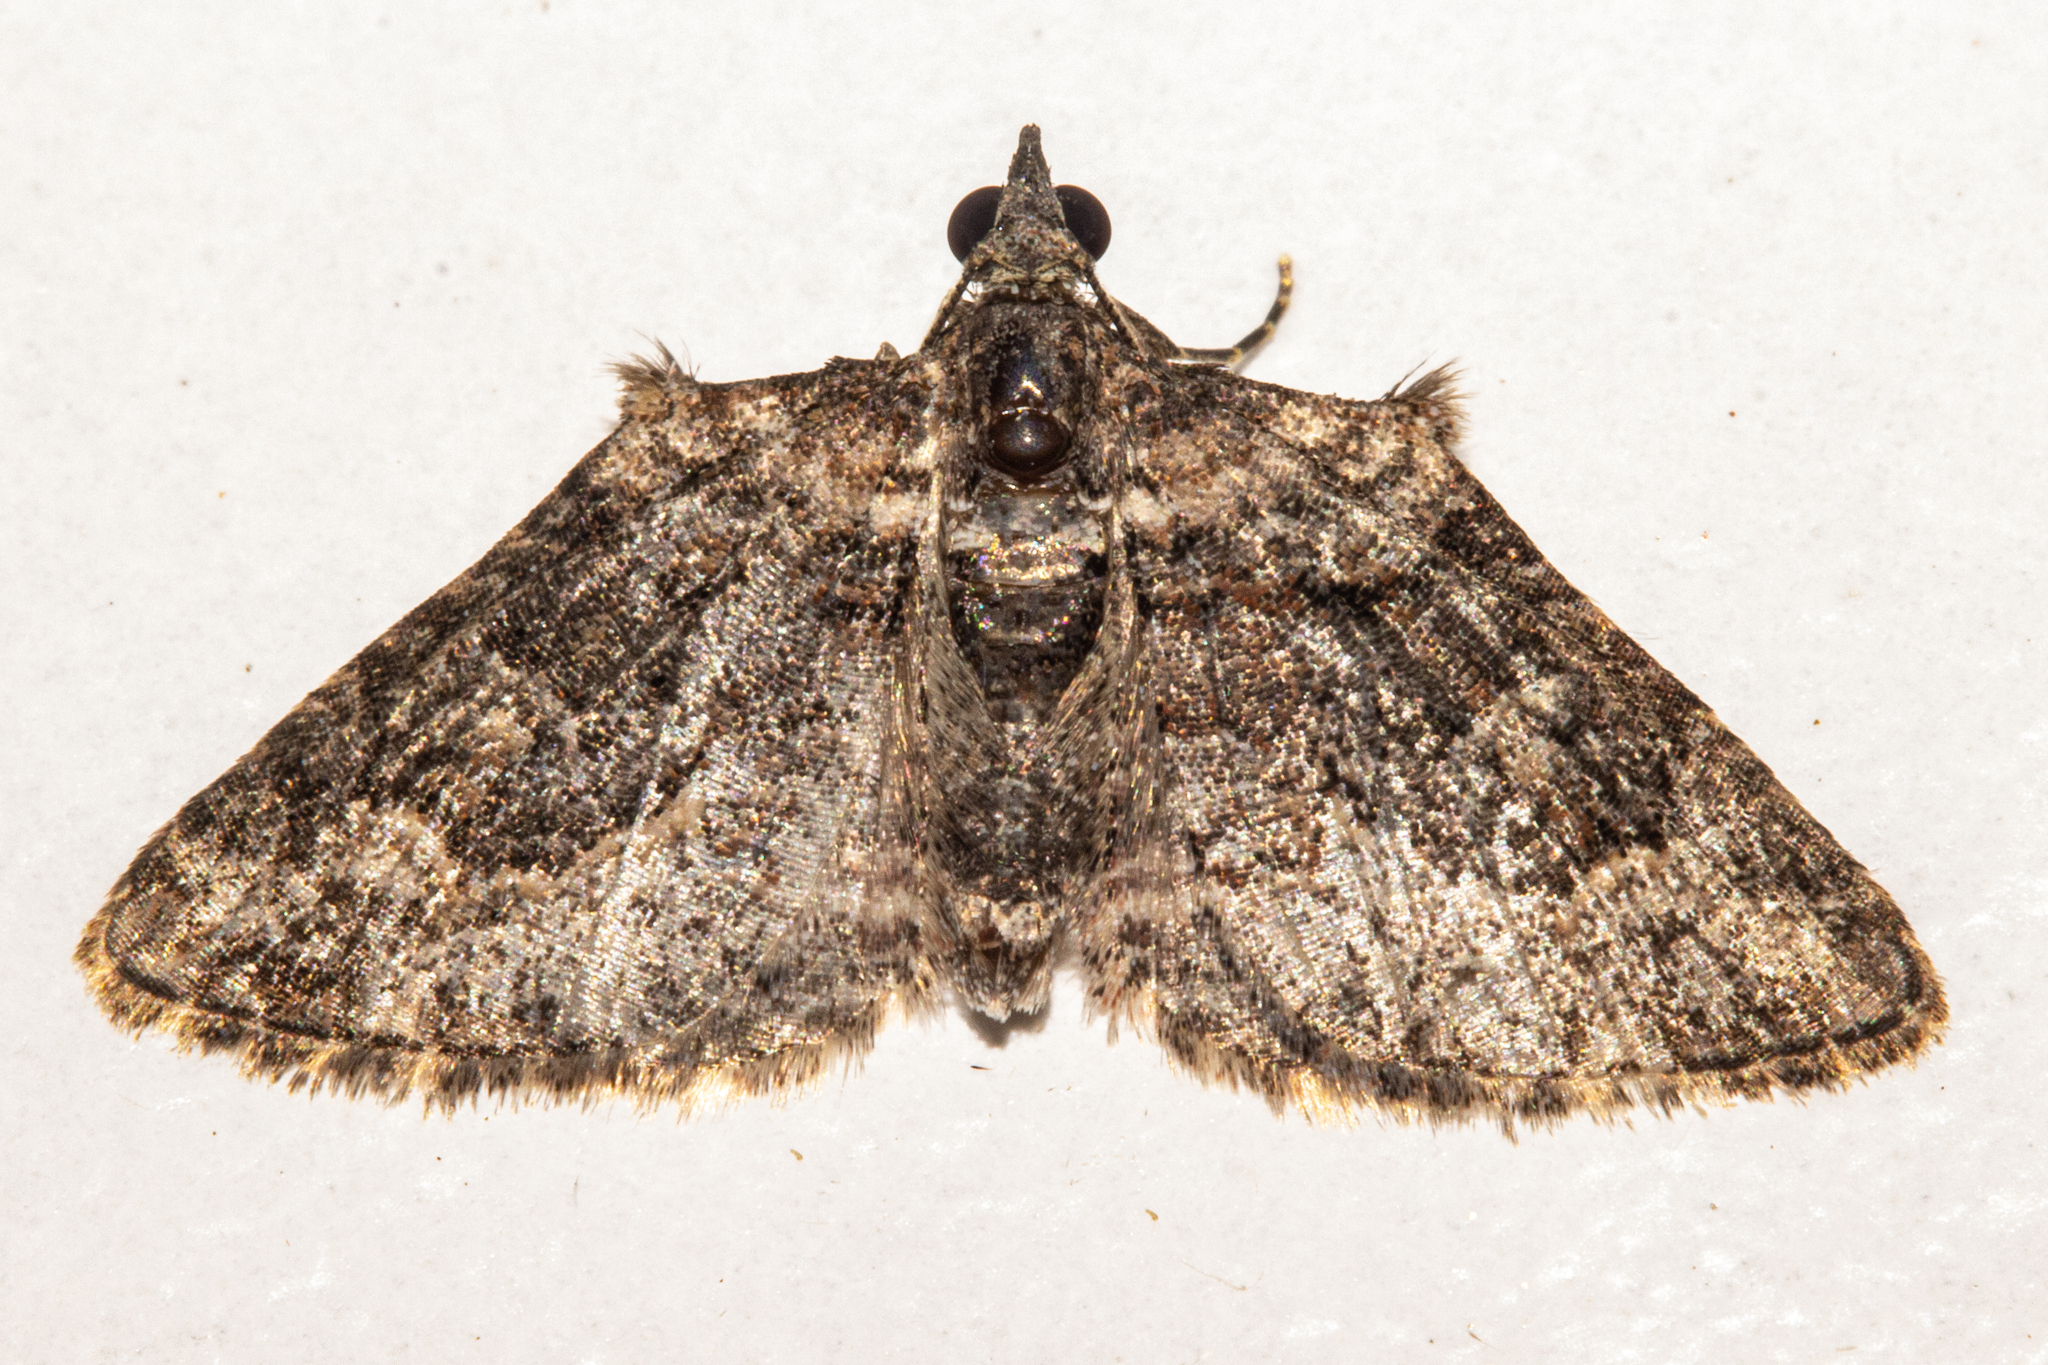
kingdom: Animalia
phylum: Arthropoda
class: Insecta
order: Lepidoptera
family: Geometridae
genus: Phrissogonus
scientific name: Phrissogonus laticostata
